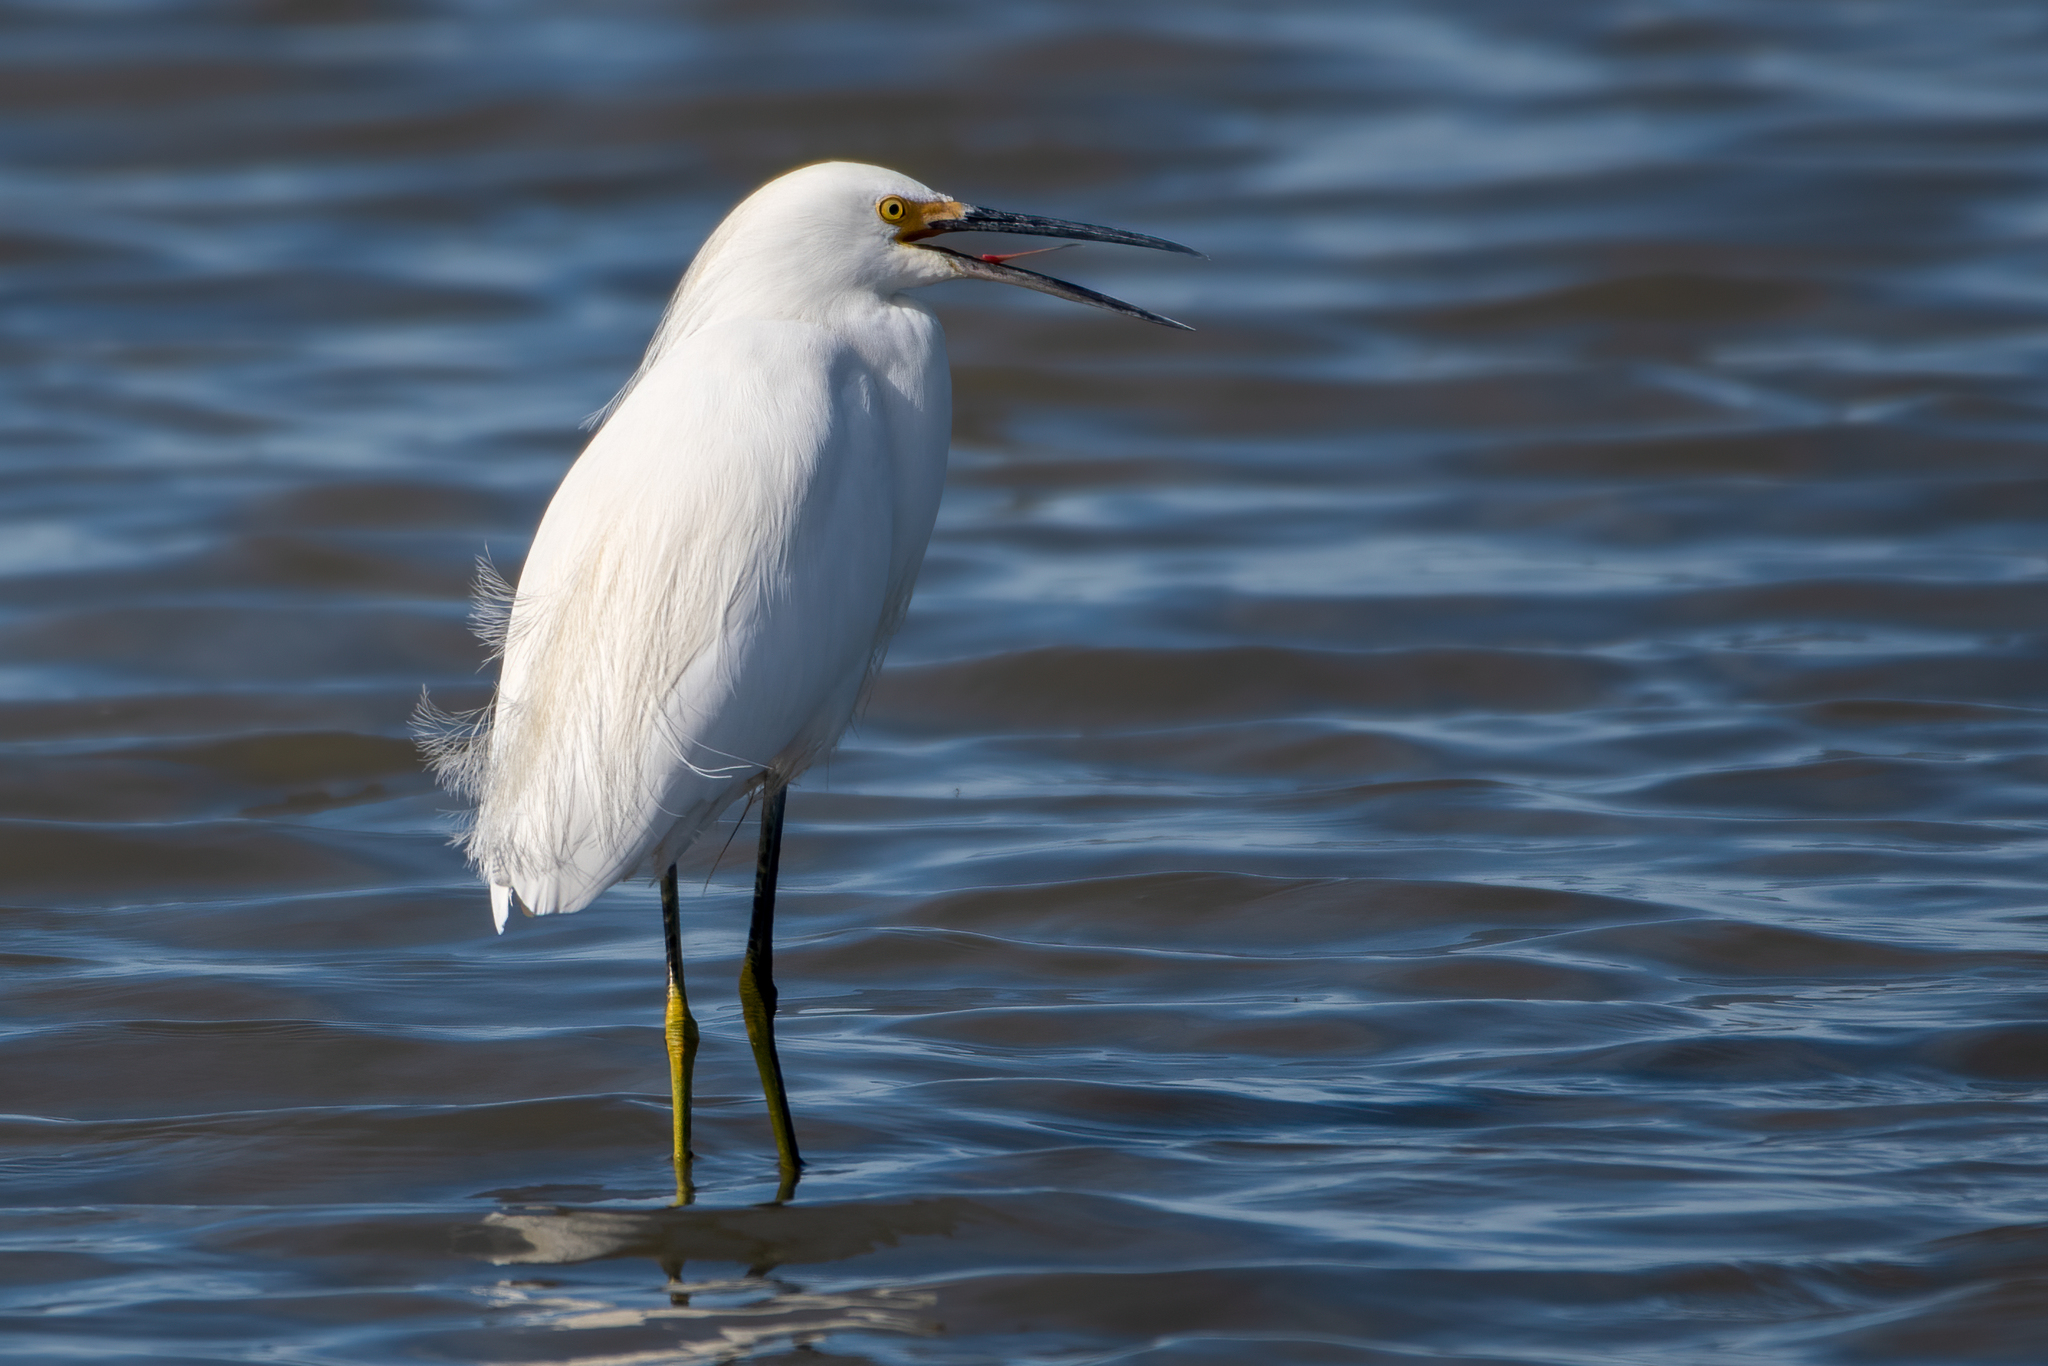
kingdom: Animalia
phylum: Chordata
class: Aves
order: Pelecaniformes
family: Ardeidae
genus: Egretta
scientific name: Egretta thula
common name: Snowy egret
